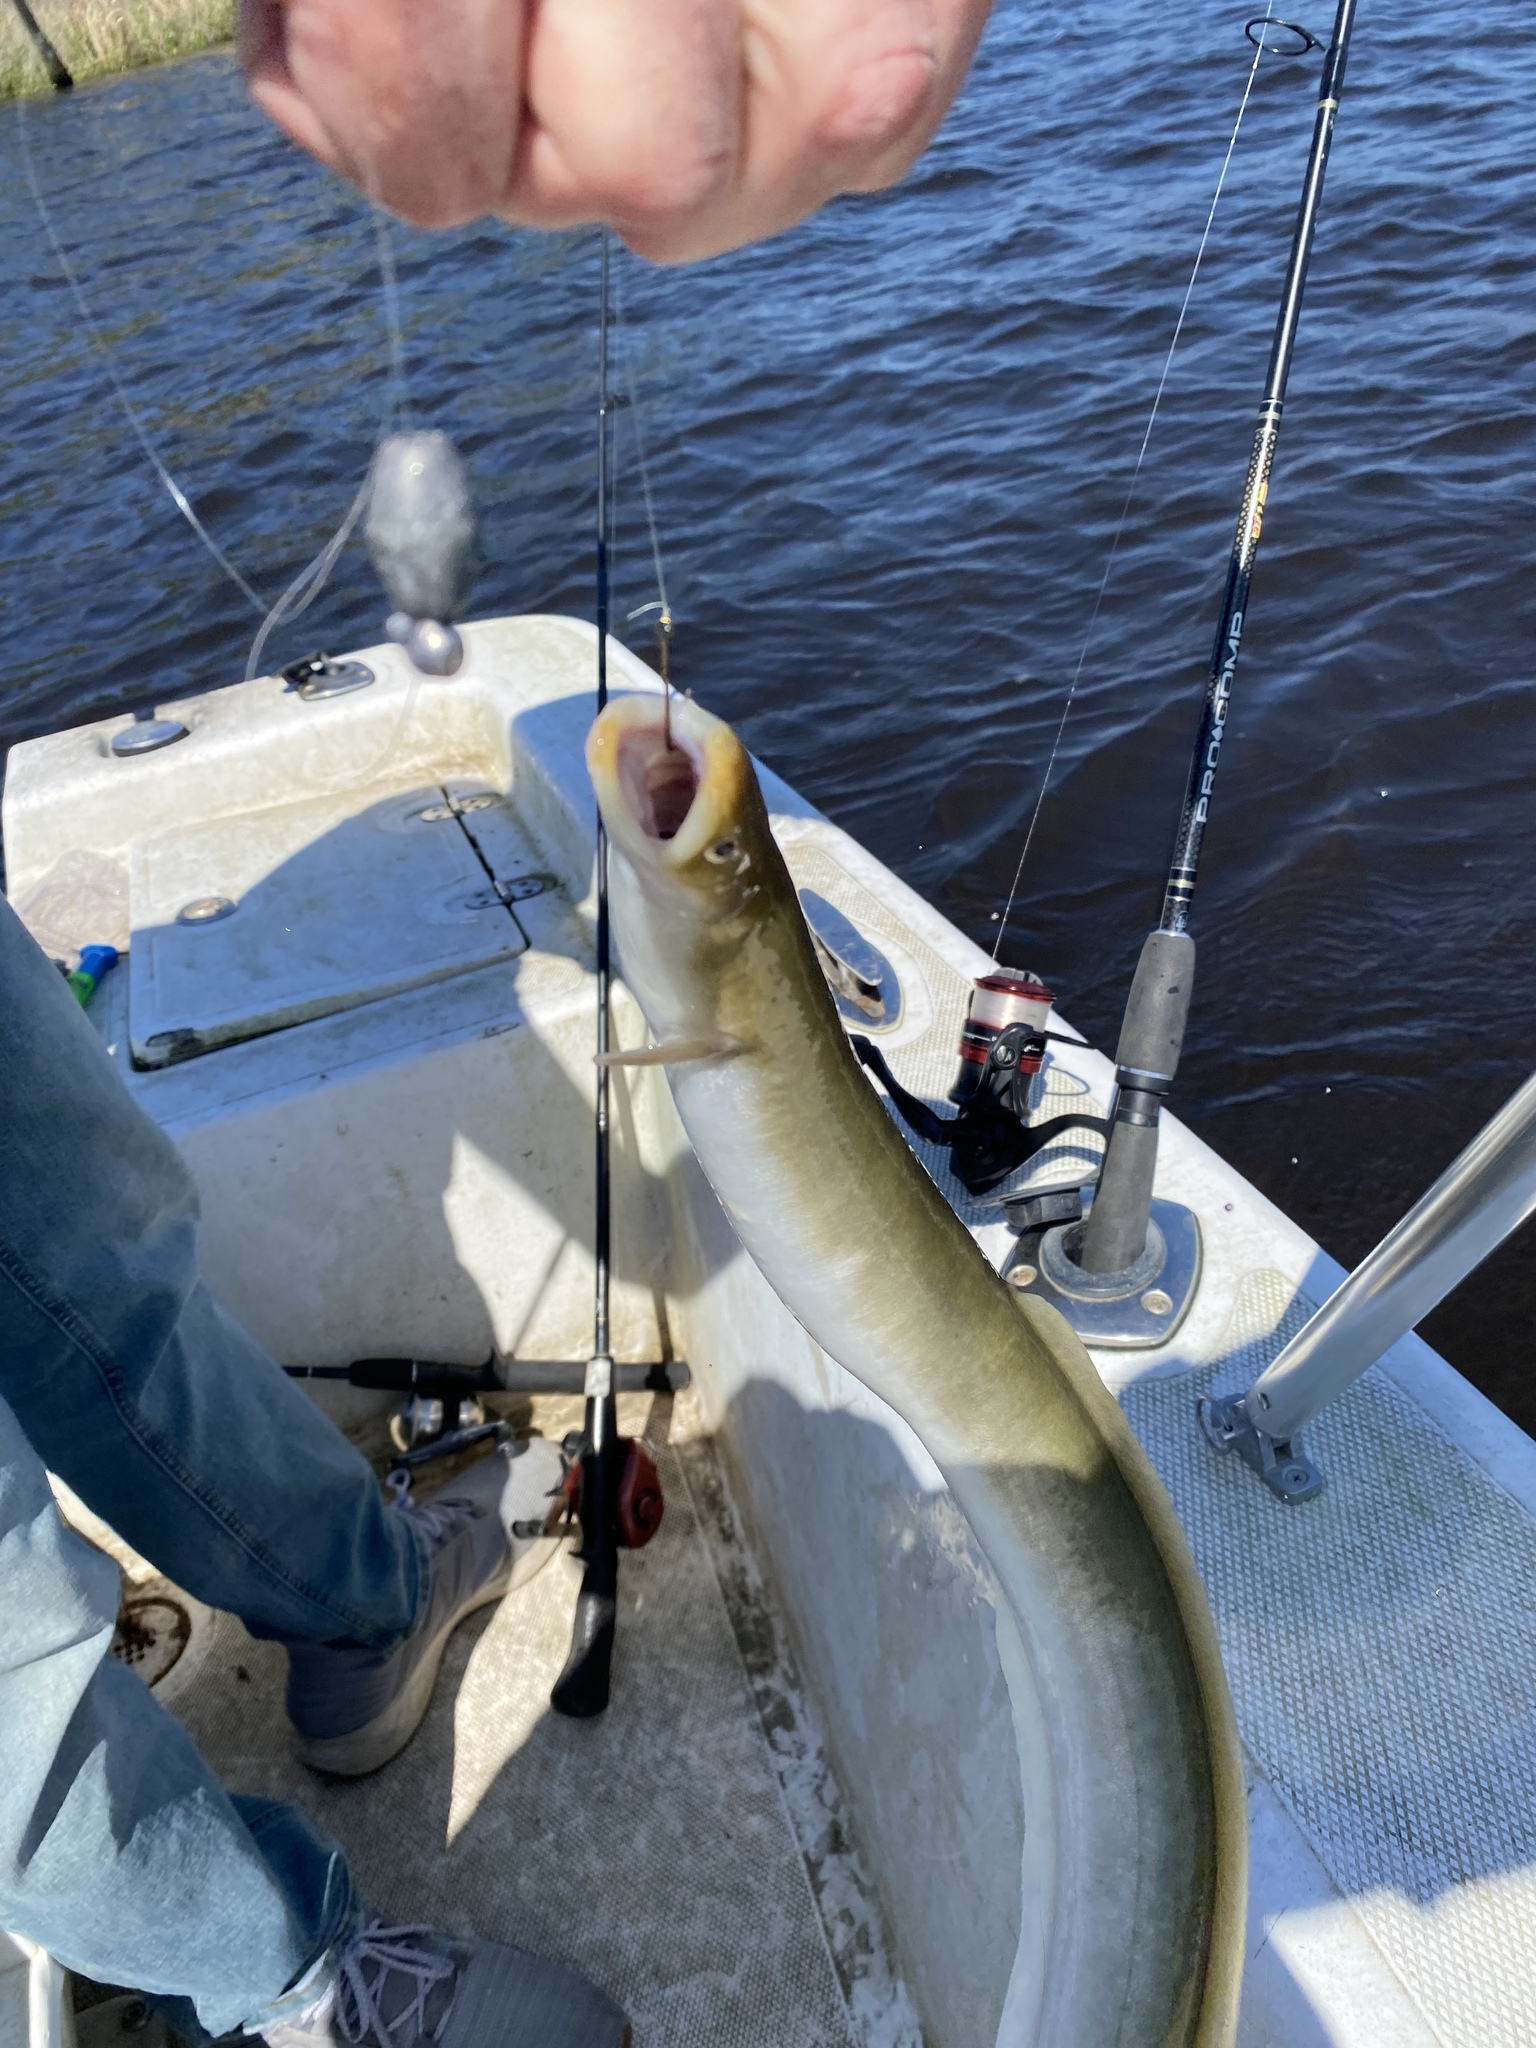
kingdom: Animalia
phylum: Chordata
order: Anguilliformes
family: Anguillidae
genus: Anguilla
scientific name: Anguilla rostrata
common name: American eel
